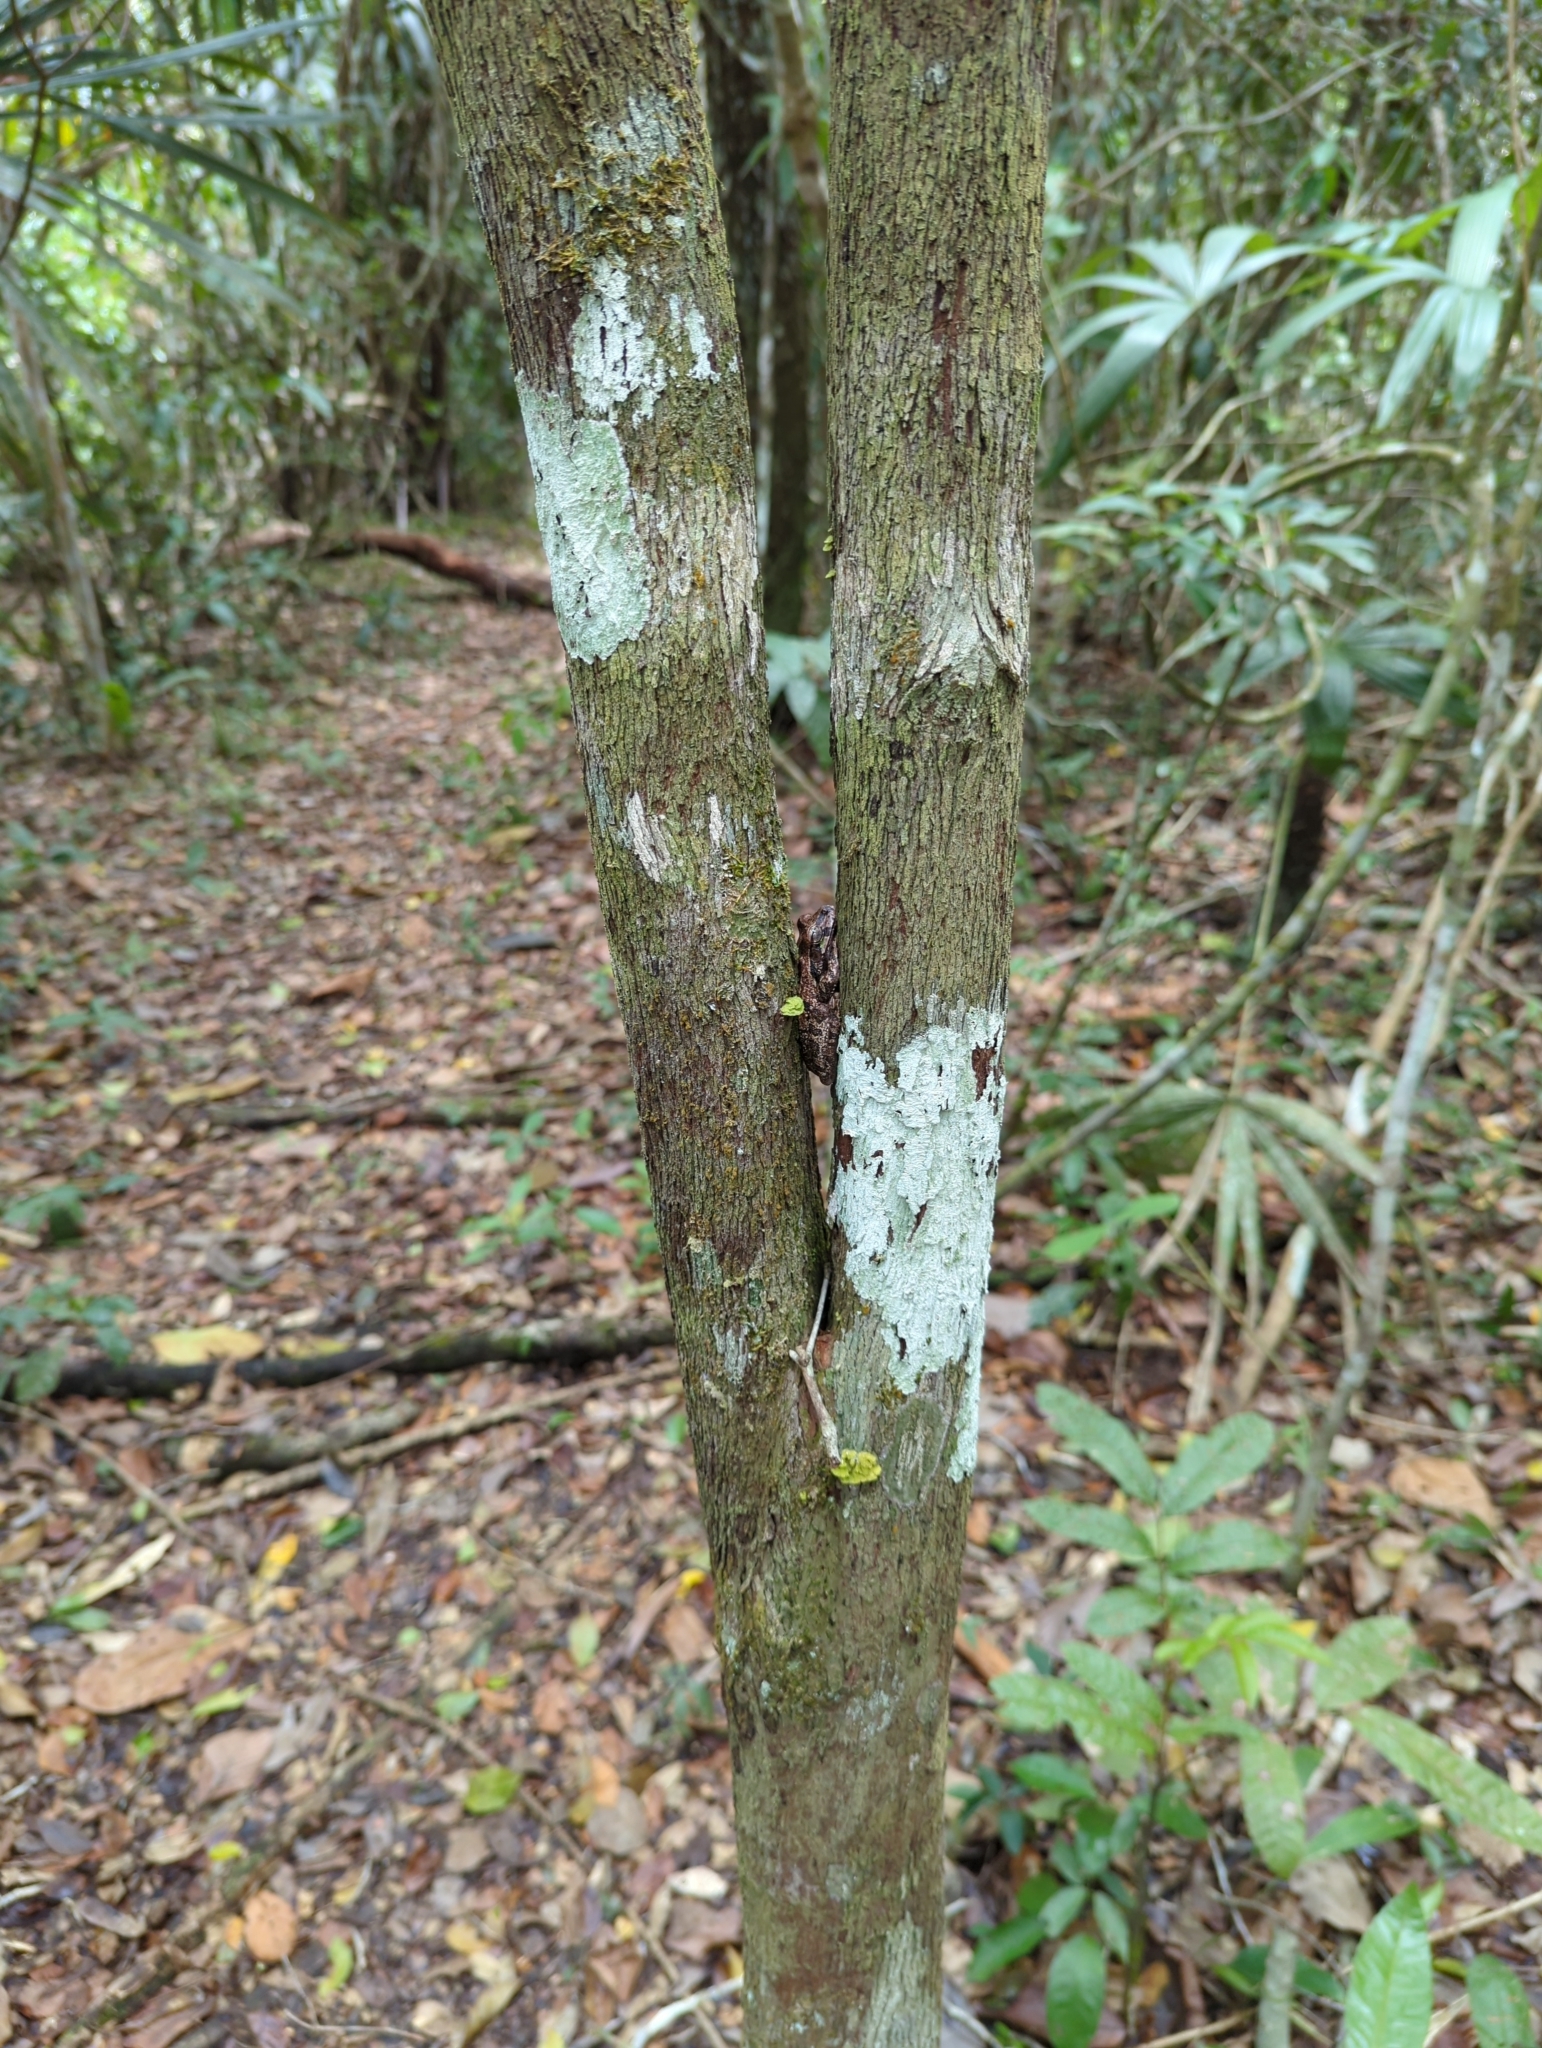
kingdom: Animalia
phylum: Chordata
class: Amphibia
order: Anura
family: Hylidae
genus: Smilisca
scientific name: Smilisca baudinii
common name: Mexican smilisca
